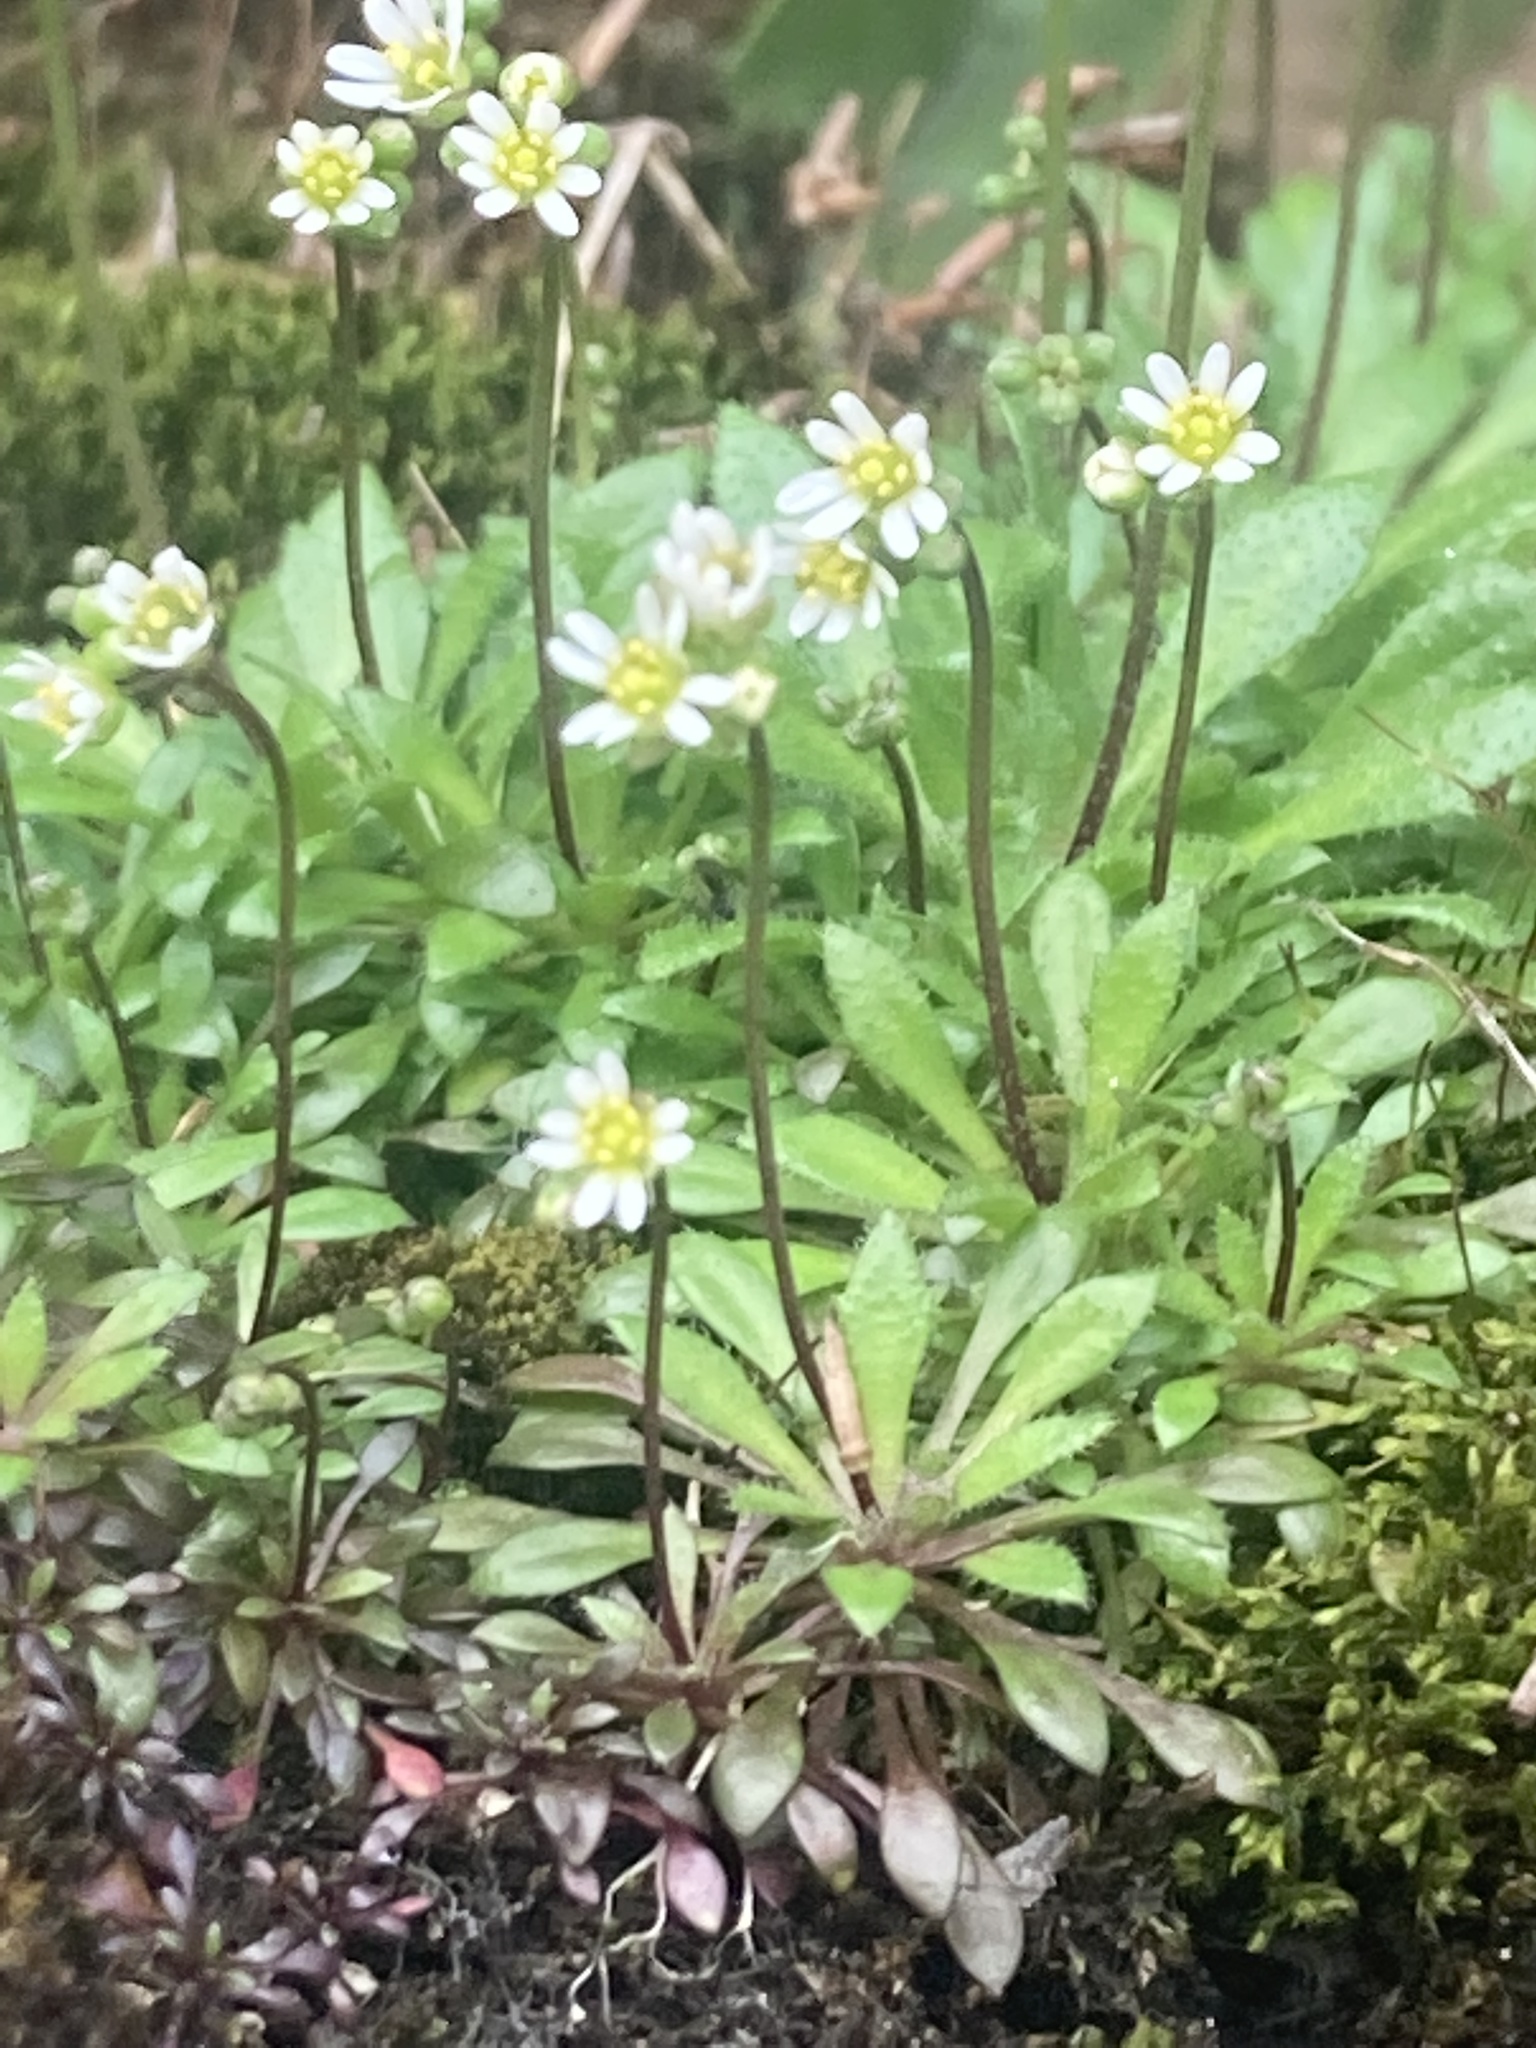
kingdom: Plantae
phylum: Tracheophyta
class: Magnoliopsida
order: Brassicales
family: Brassicaceae
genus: Draba
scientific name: Draba verna
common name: Spring draba
